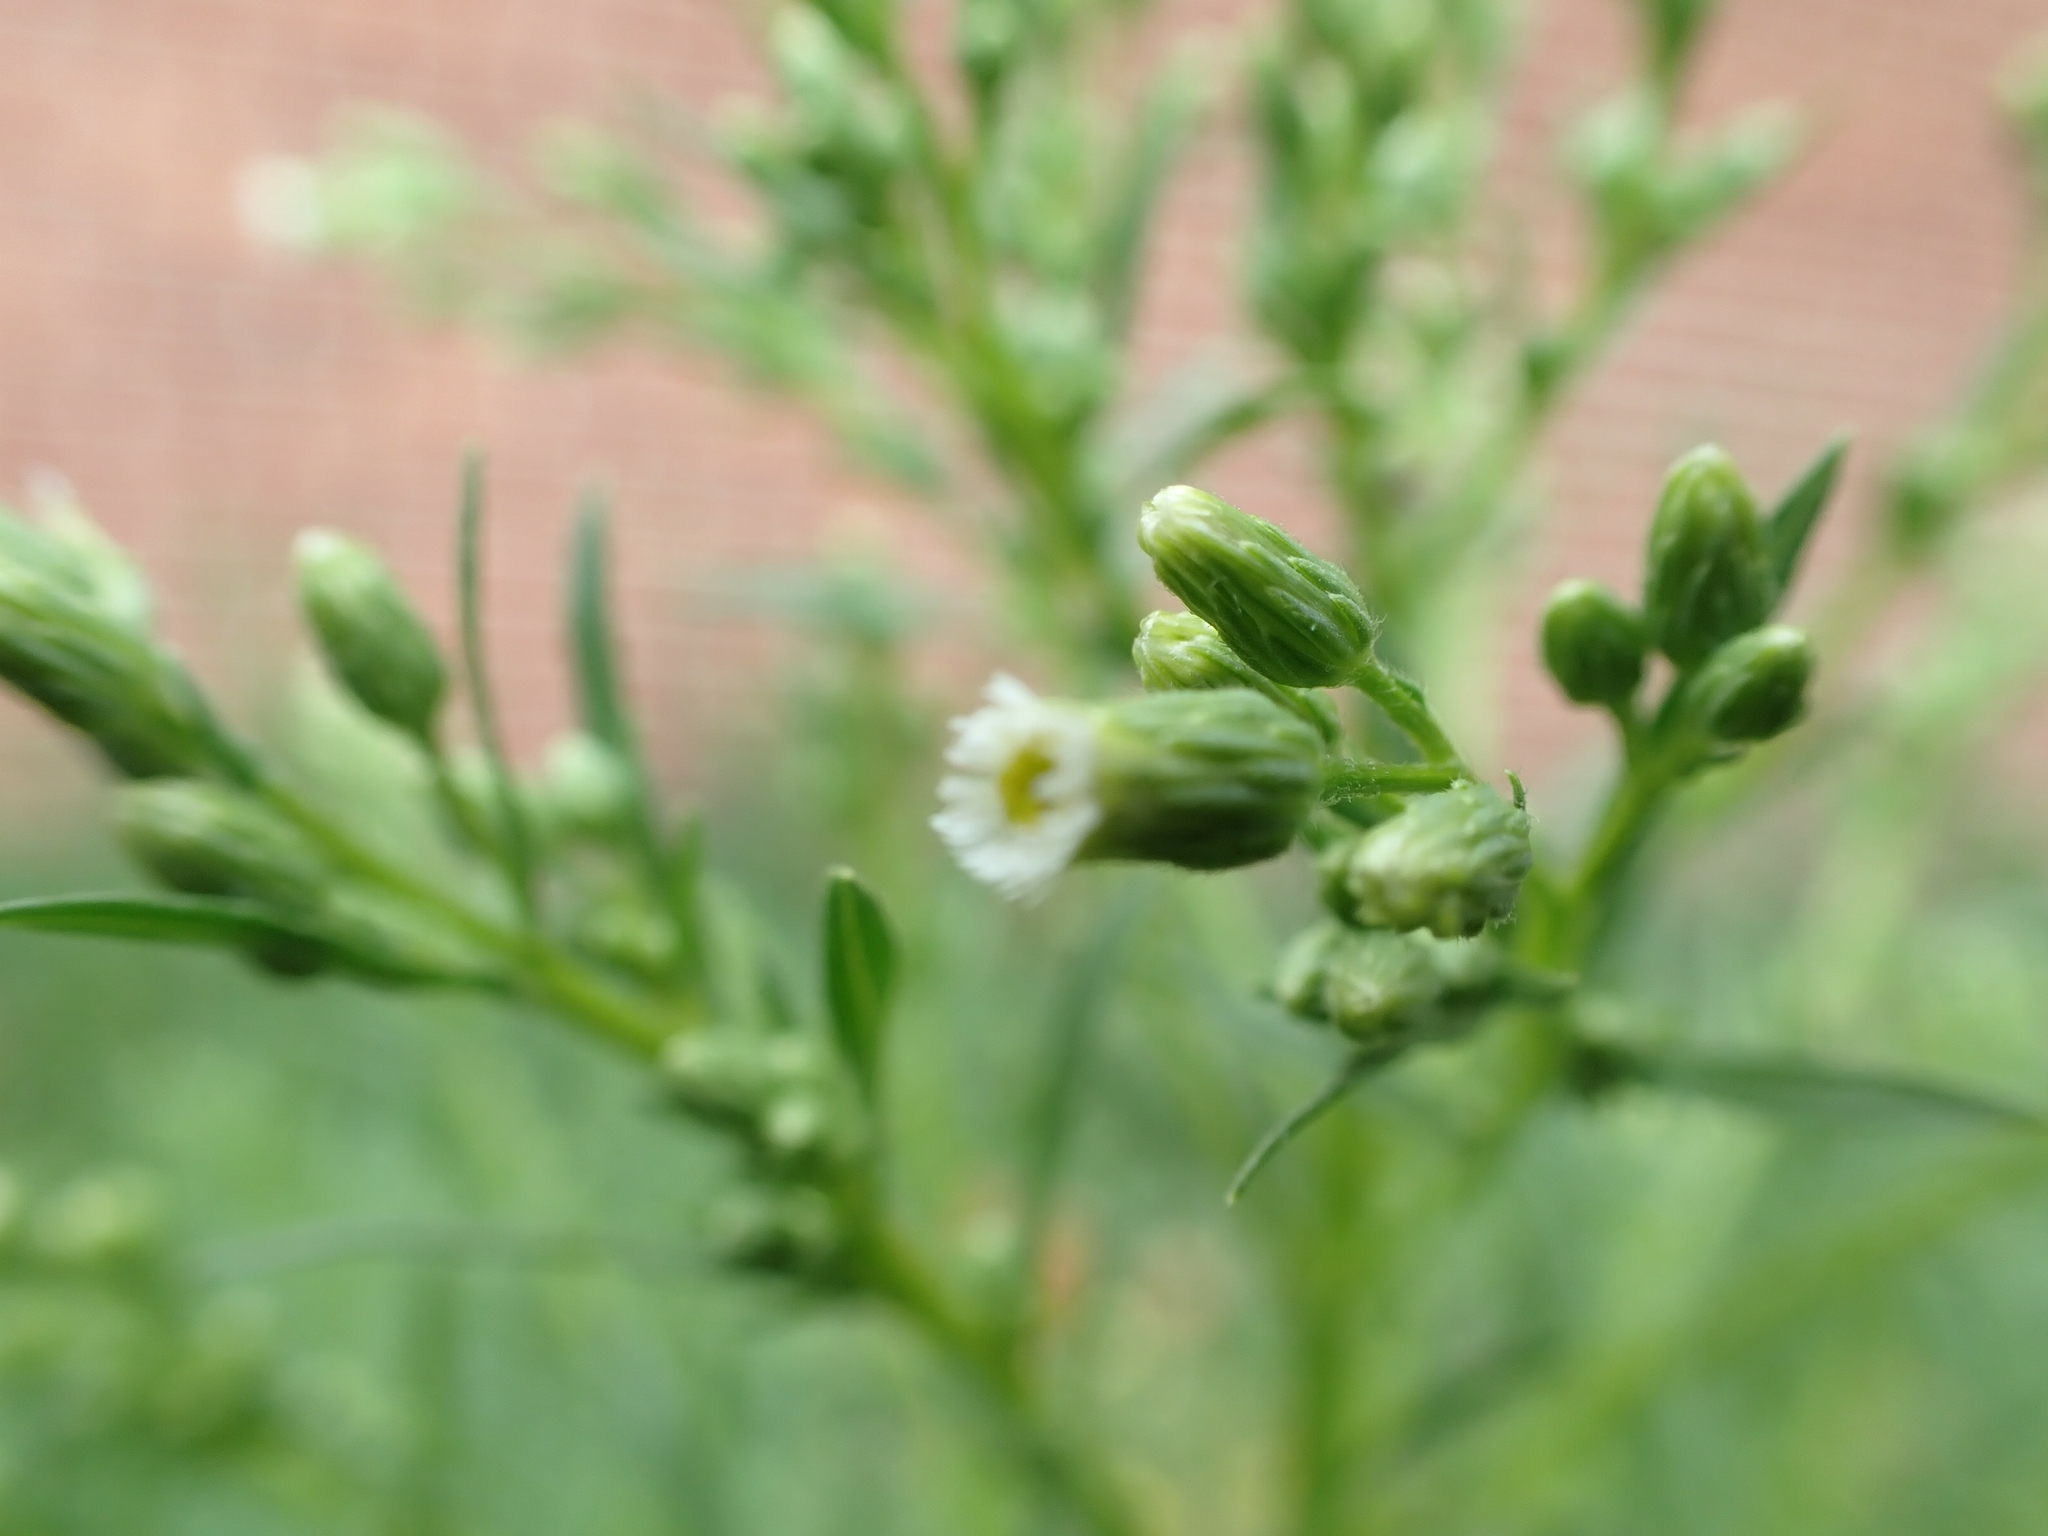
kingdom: Plantae
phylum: Tracheophyta
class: Magnoliopsida
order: Asterales
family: Asteraceae
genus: Erigeron
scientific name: Erigeron canadensis
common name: Canadian fleabane
